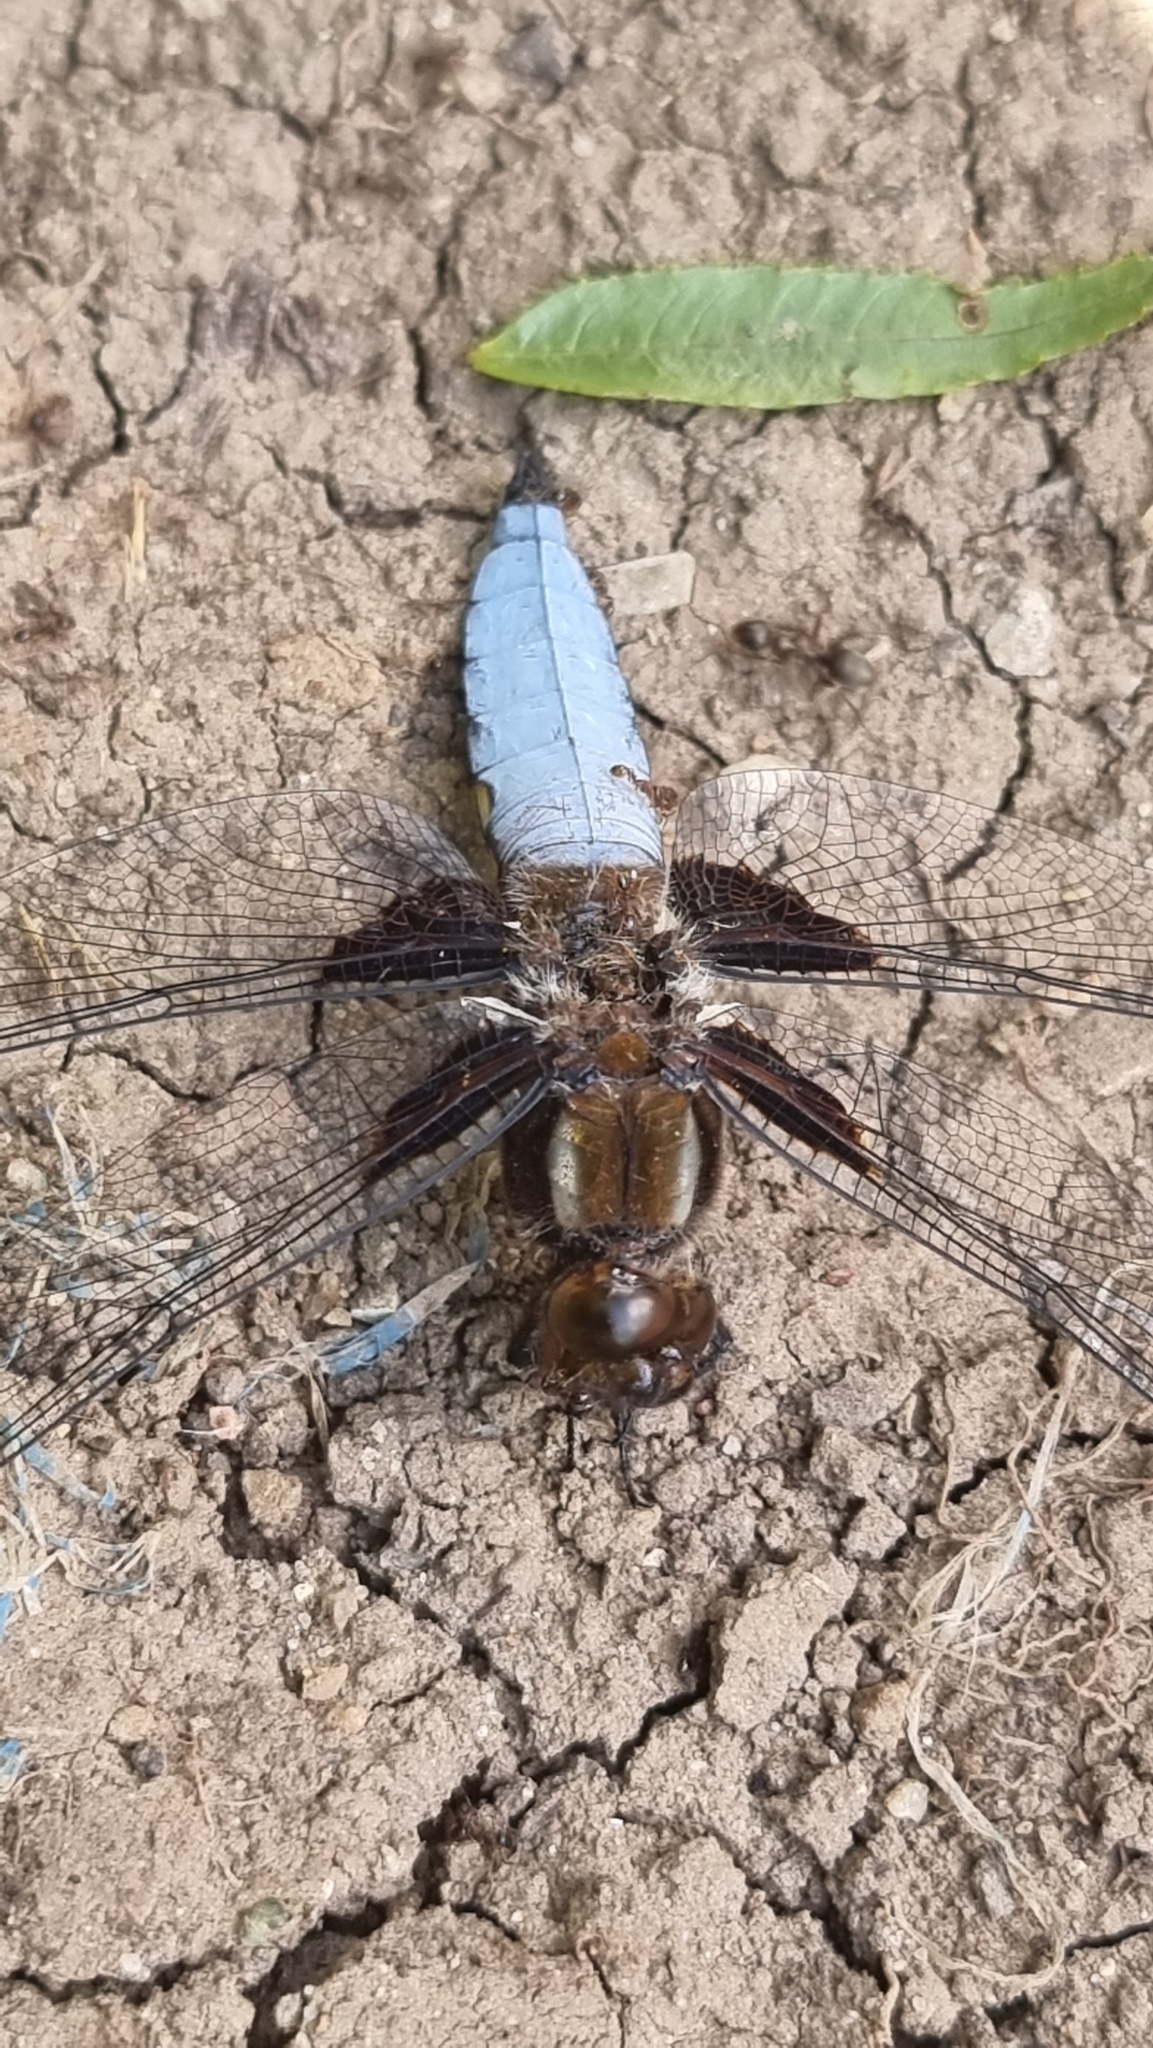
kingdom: Animalia
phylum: Arthropoda
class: Insecta
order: Odonata
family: Libellulidae
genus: Libellula
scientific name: Libellula depressa
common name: Broad-bodied chaser
